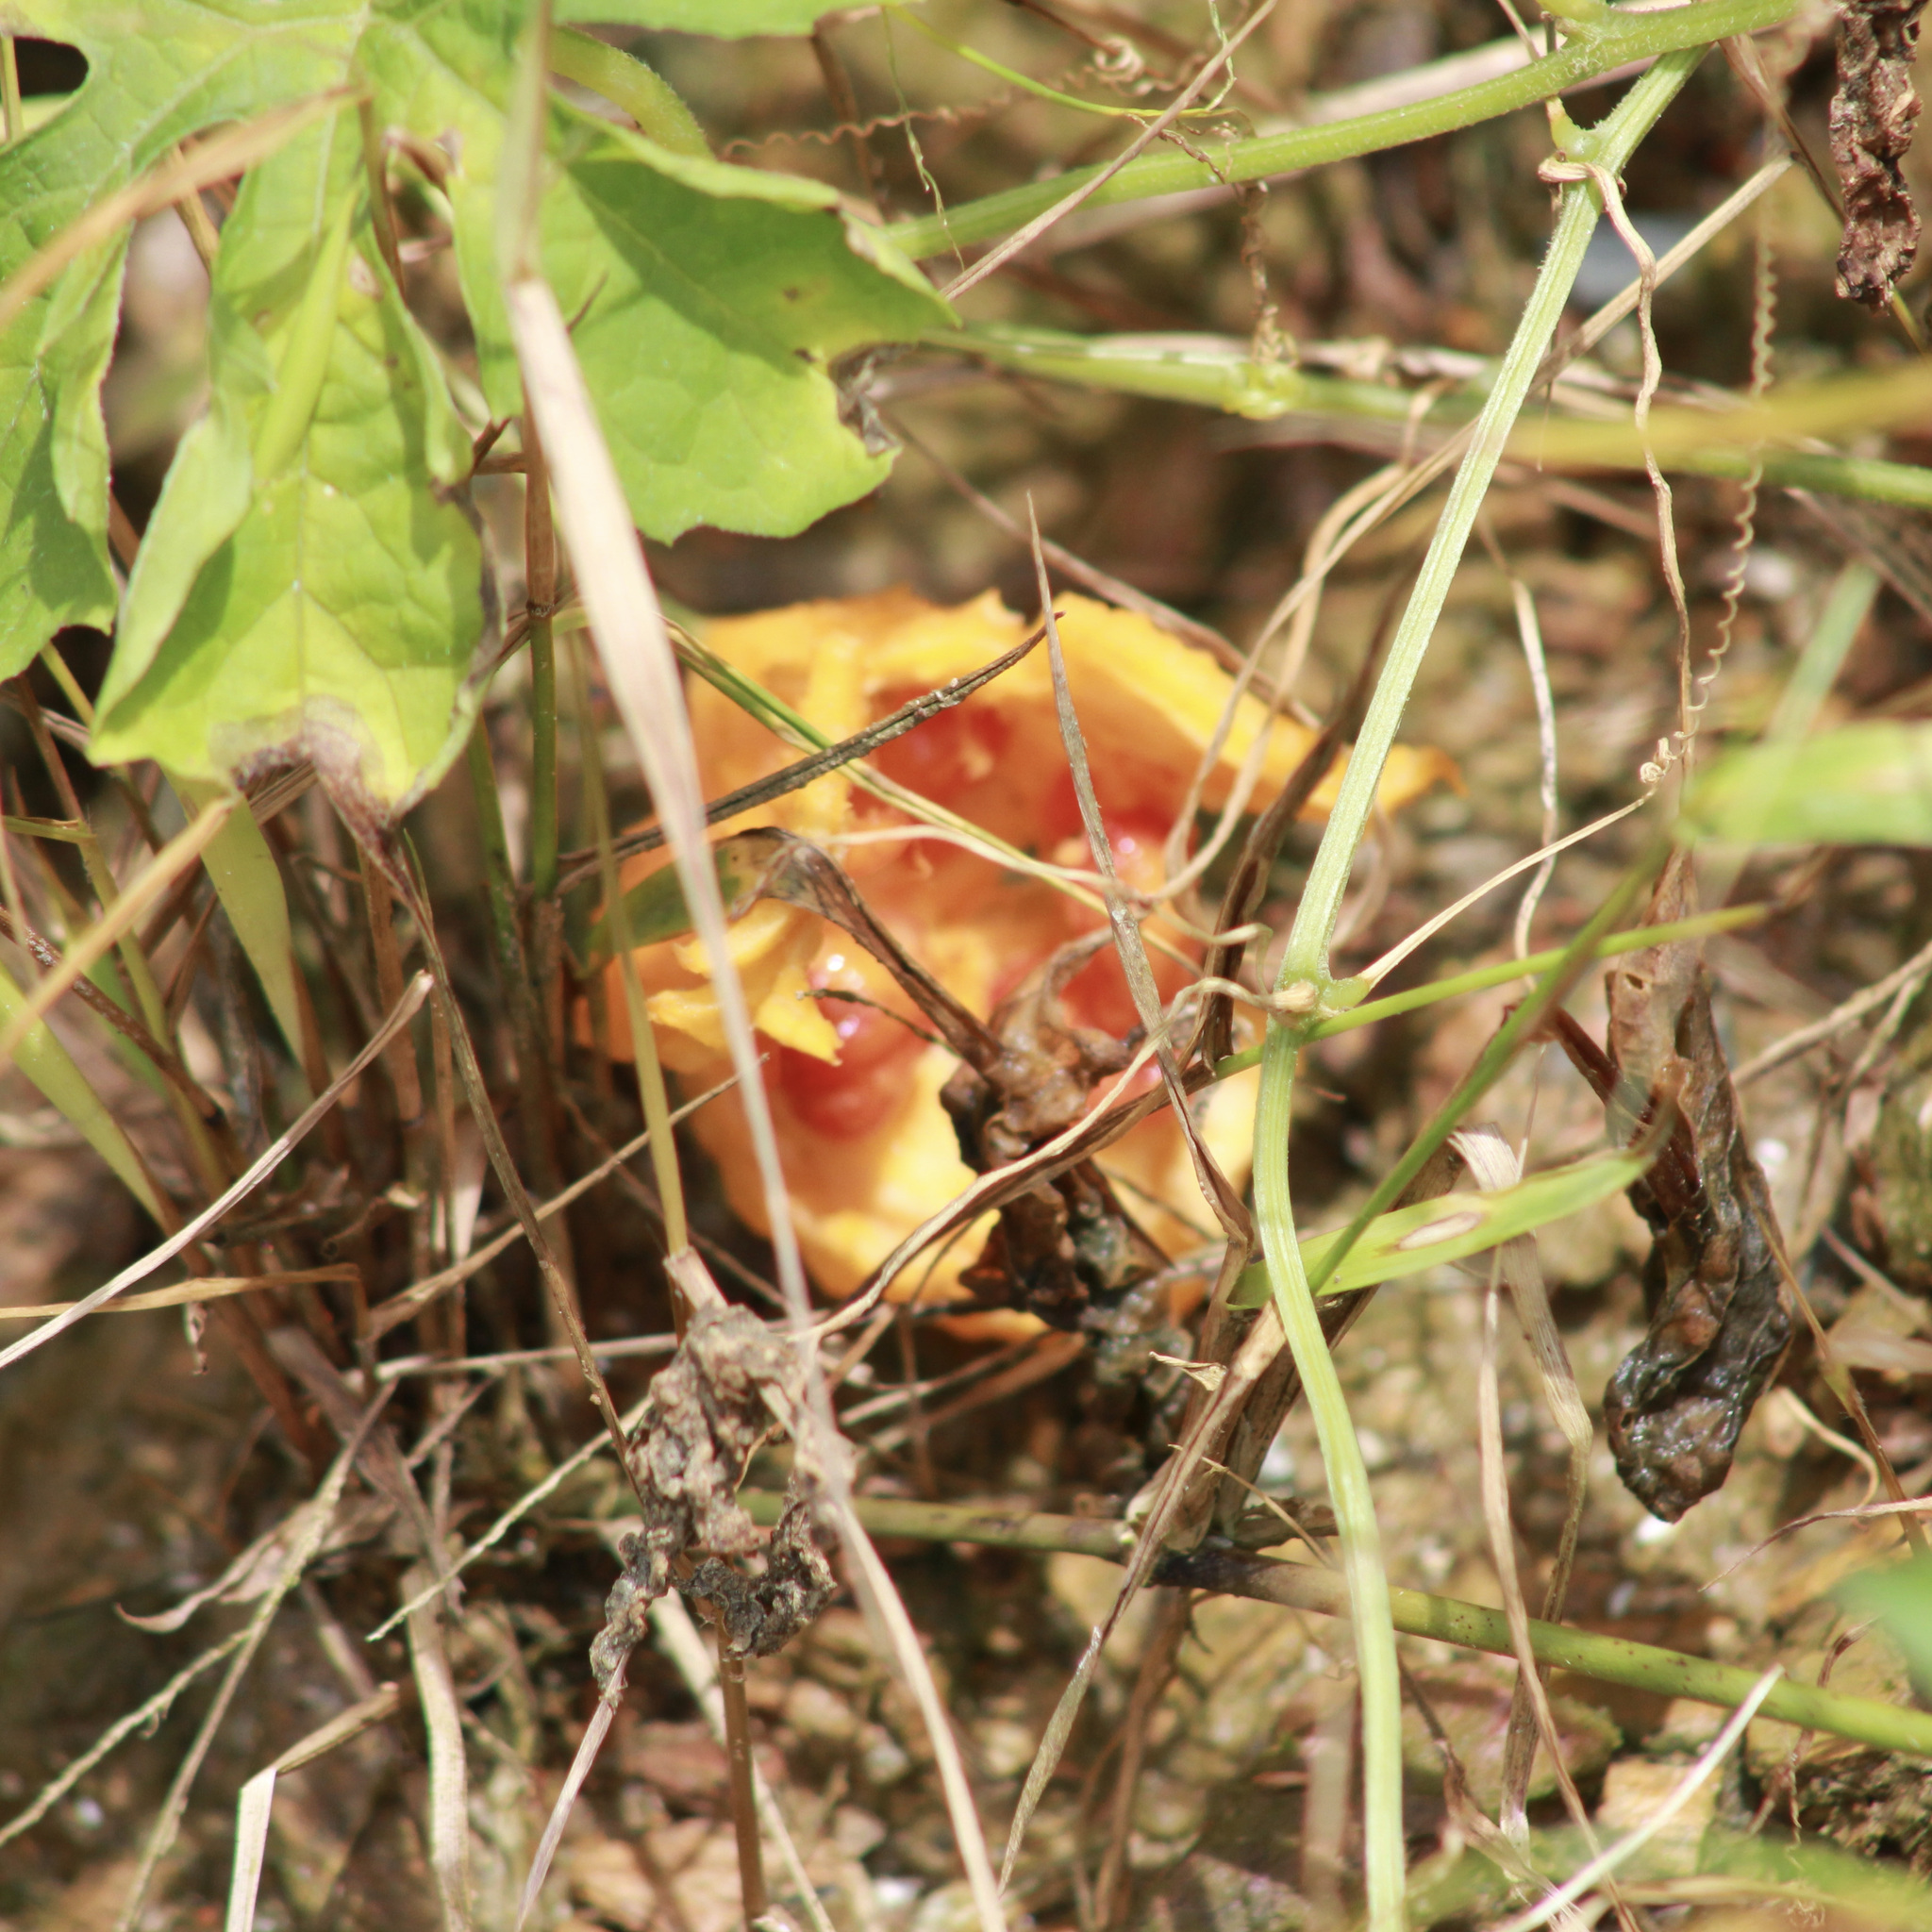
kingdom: Plantae
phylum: Tracheophyta
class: Magnoliopsida
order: Cucurbitales
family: Cucurbitaceae
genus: Momordica
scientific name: Momordica charantia
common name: Balsampear
